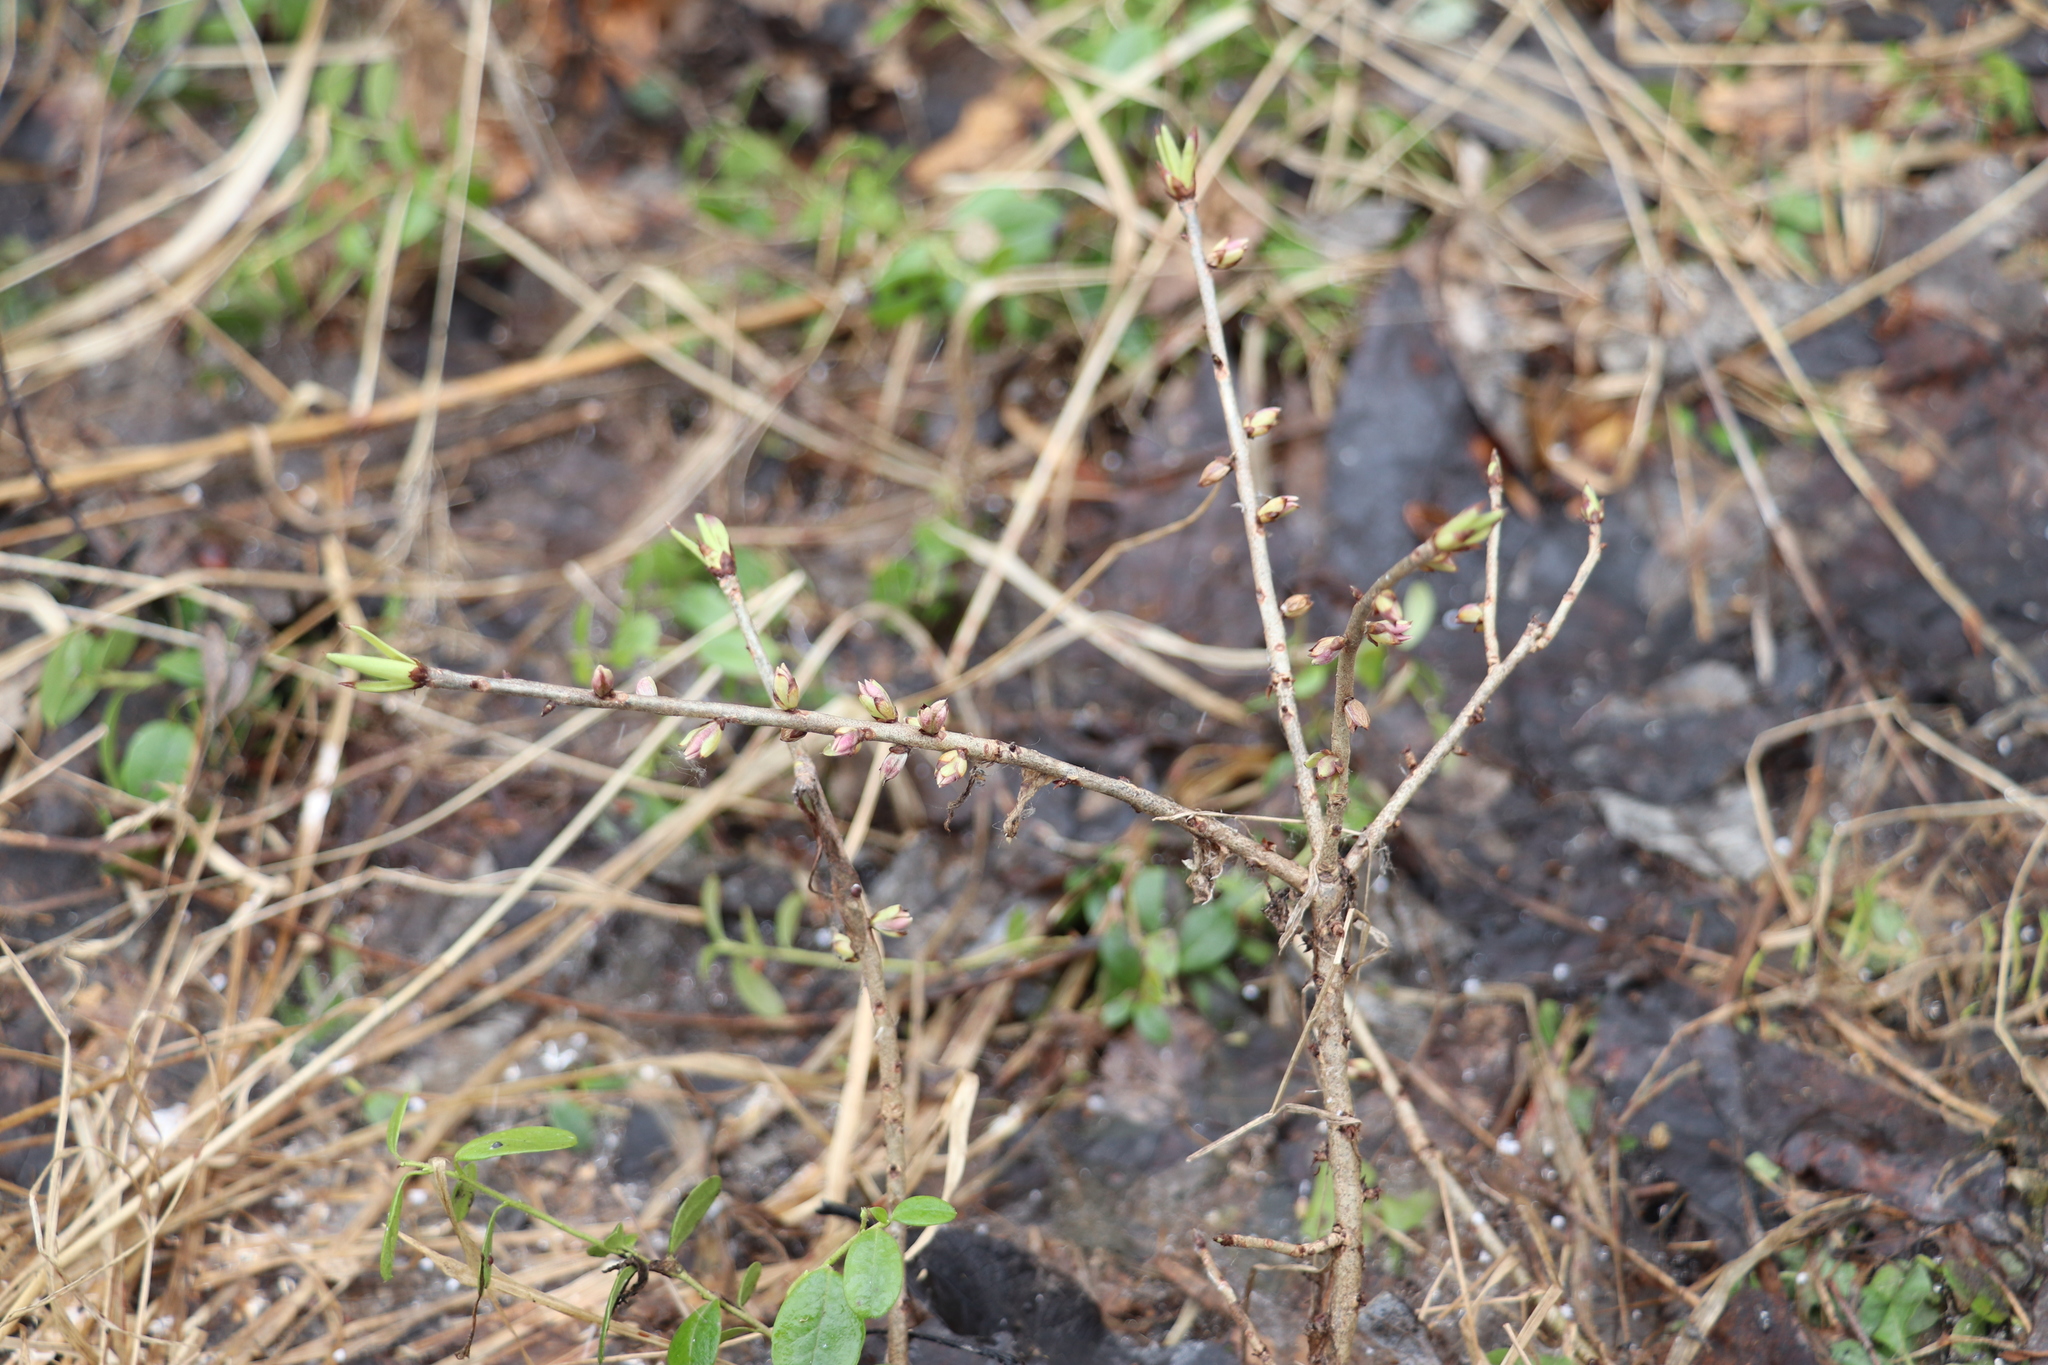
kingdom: Plantae
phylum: Tracheophyta
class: Magnoliopsida
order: Malvales
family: Thymelaeaceae
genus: Daphne
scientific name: Daphne mezereum
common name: Mezereon
